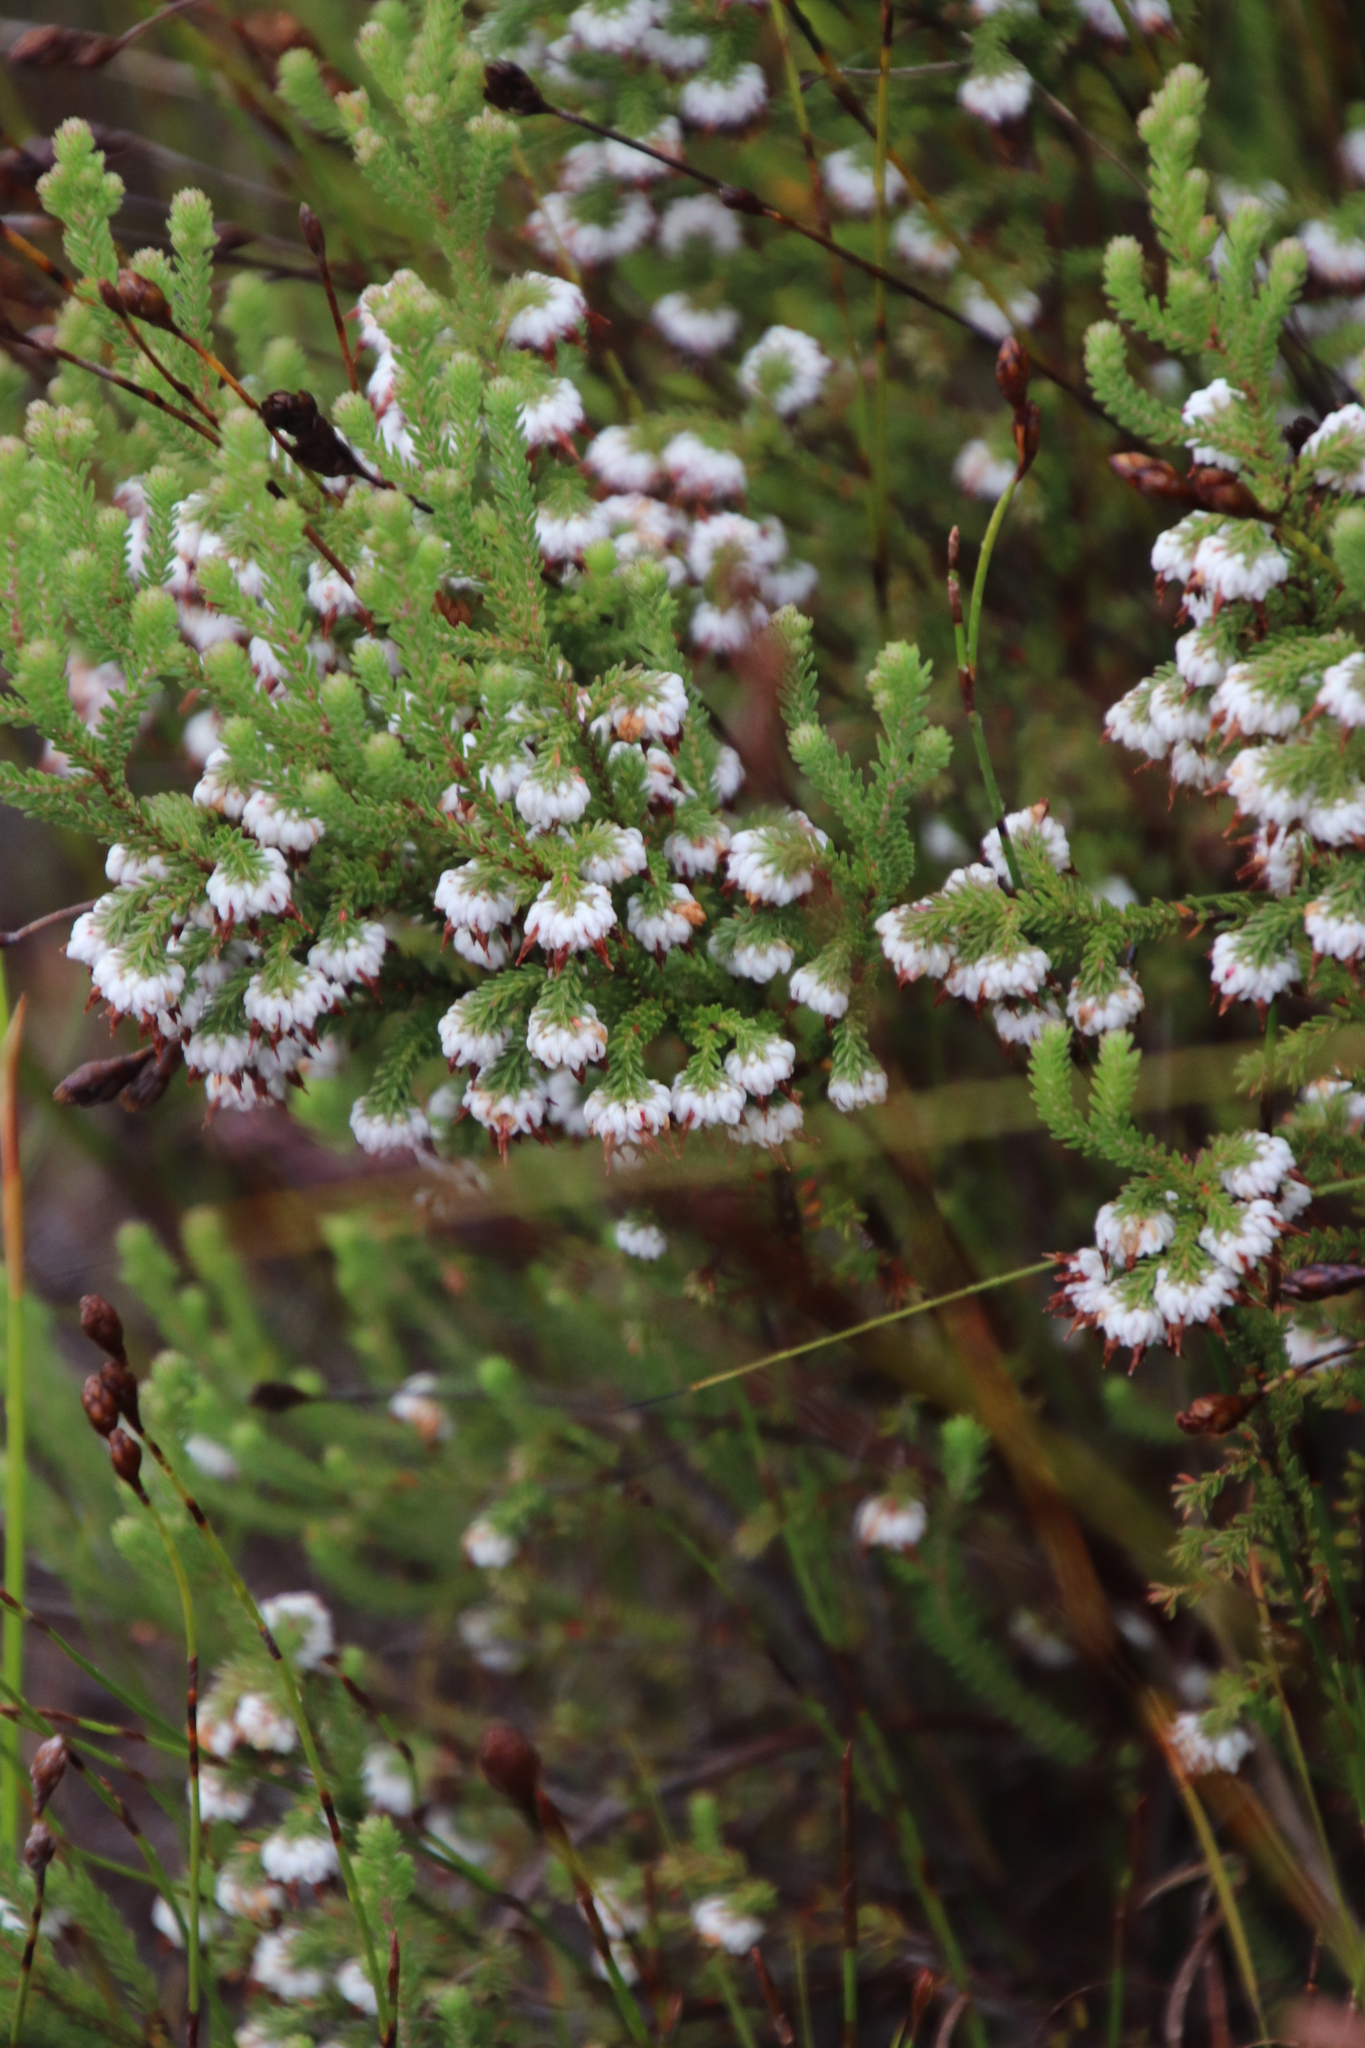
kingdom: Plantae
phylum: Tracheophyta
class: Magnoliopsida
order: Ericales
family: Ericaceae
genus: Erica
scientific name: Erica cumuliflora
